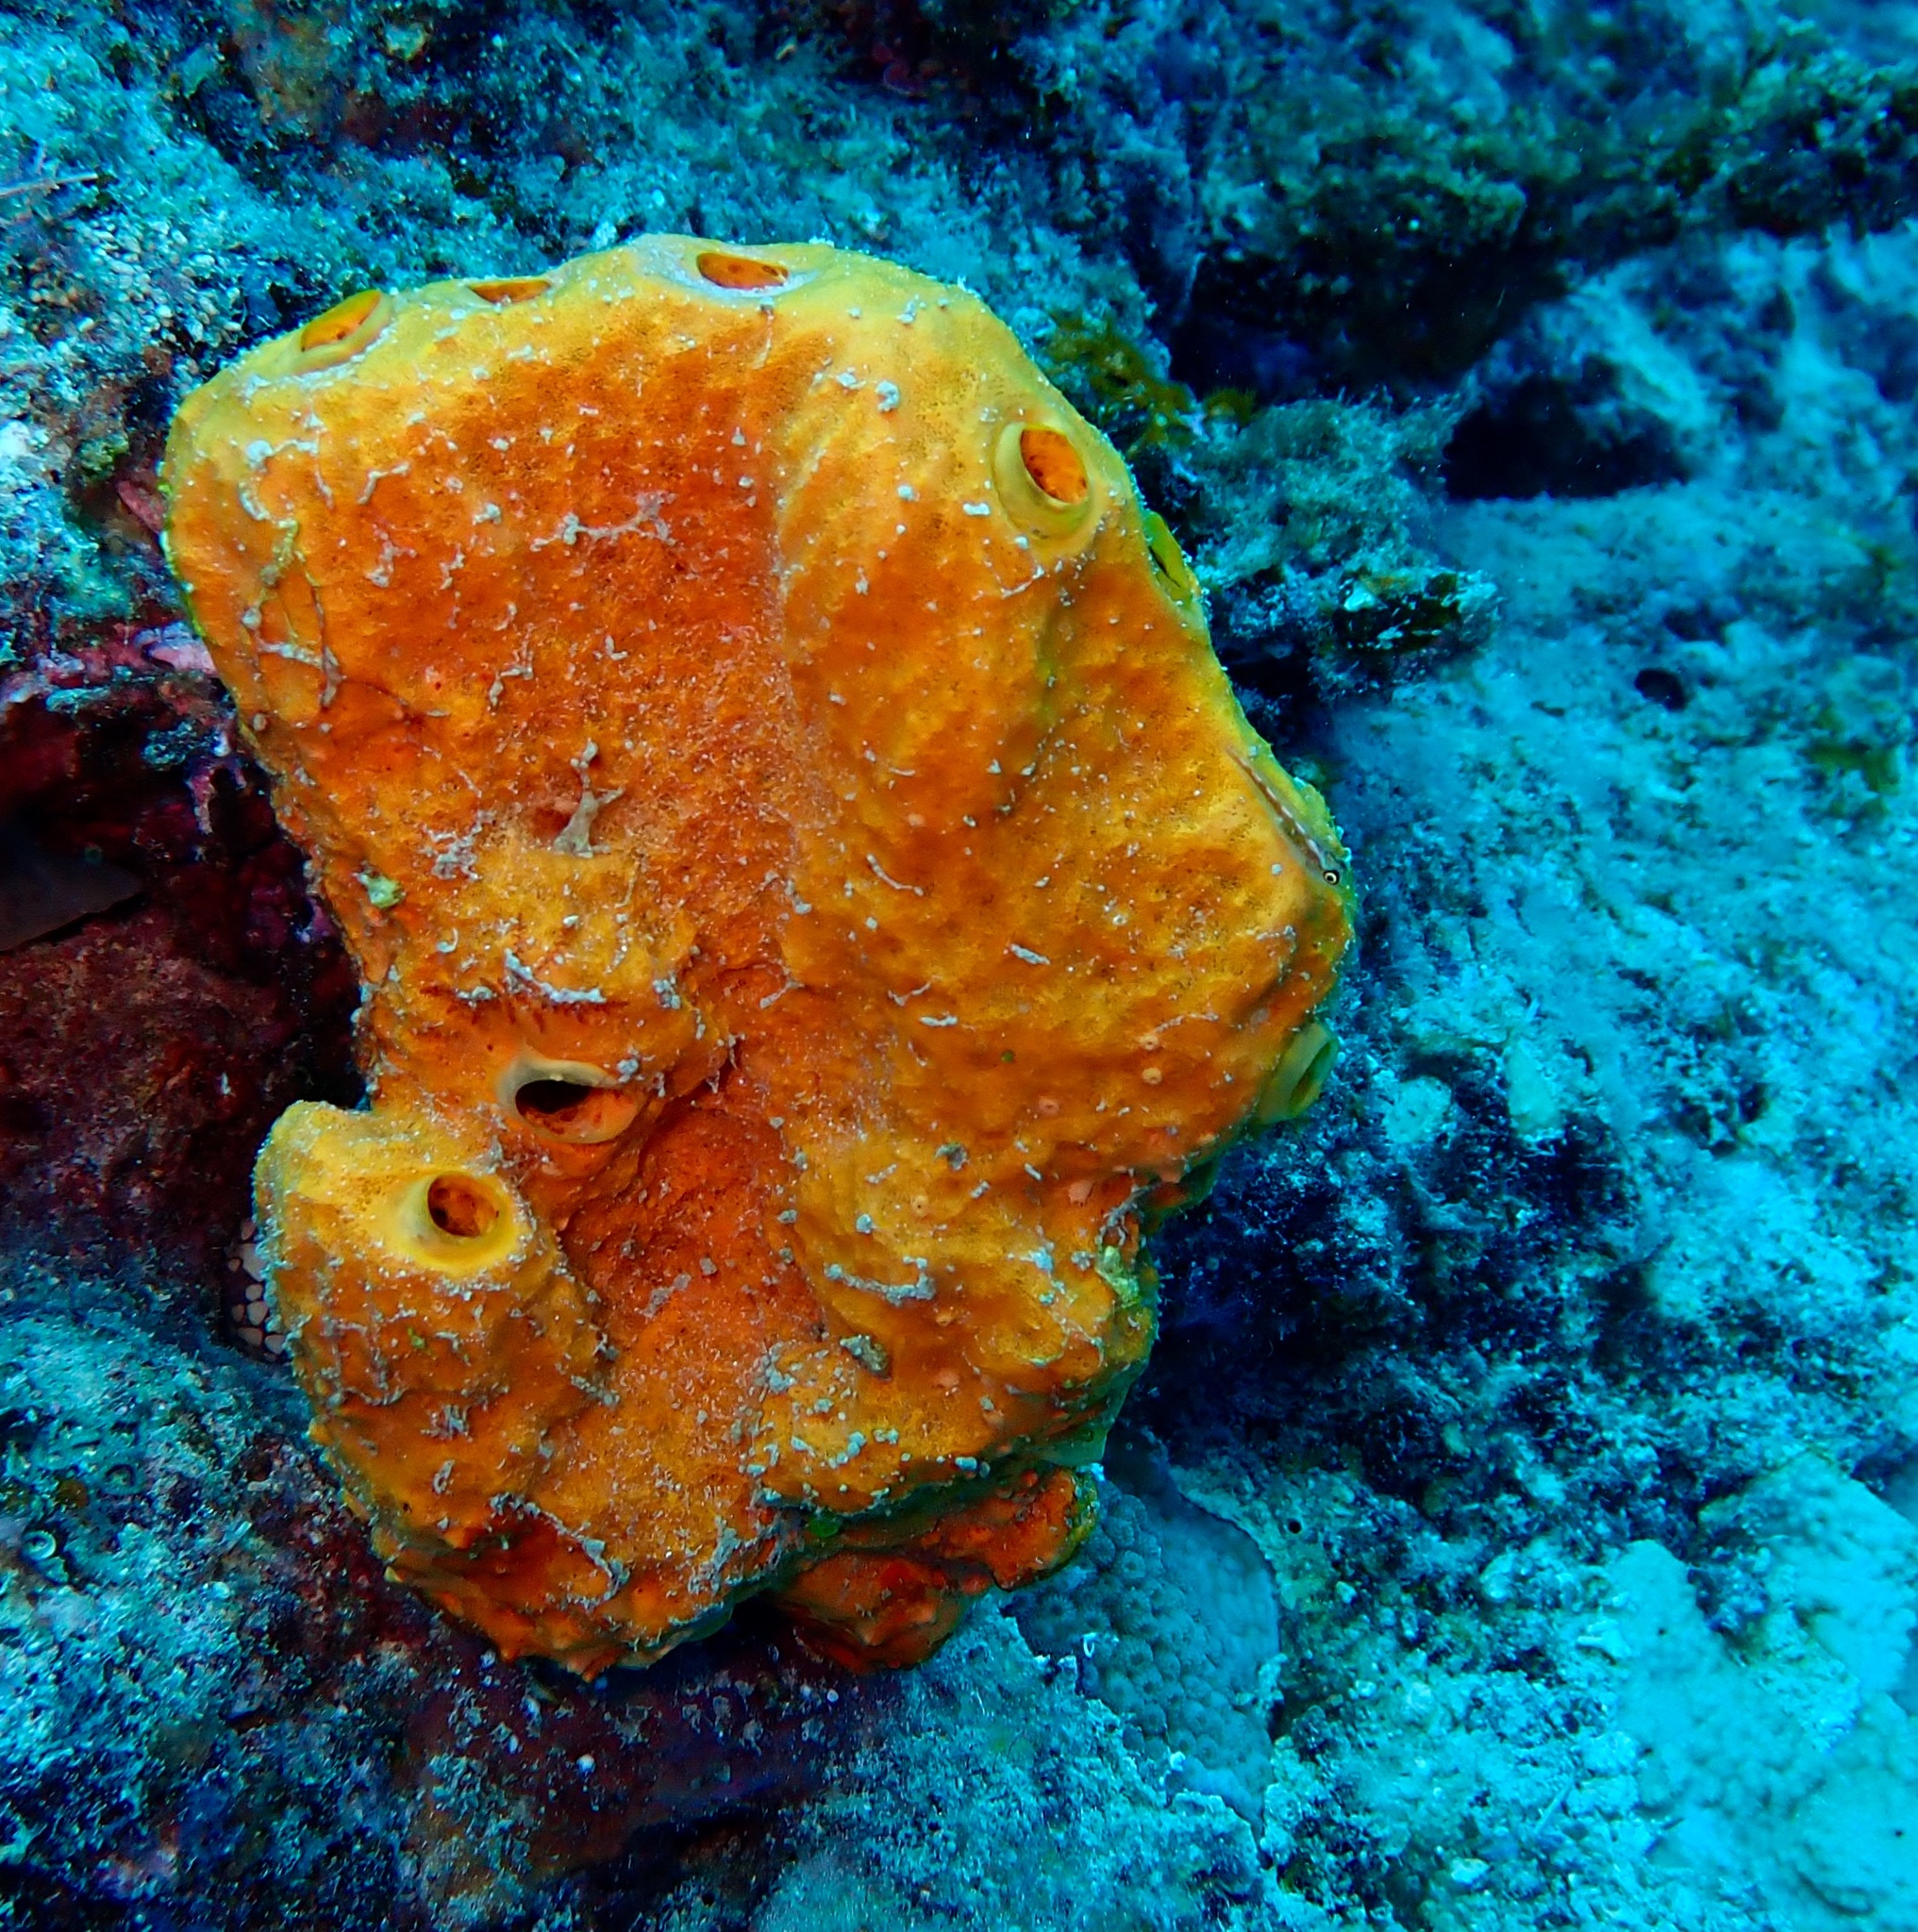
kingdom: Animalia
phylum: Porifera
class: Demospongiae
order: Scopalinida
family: Scopalinidae
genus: Stylissa
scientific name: Stylissa massa
